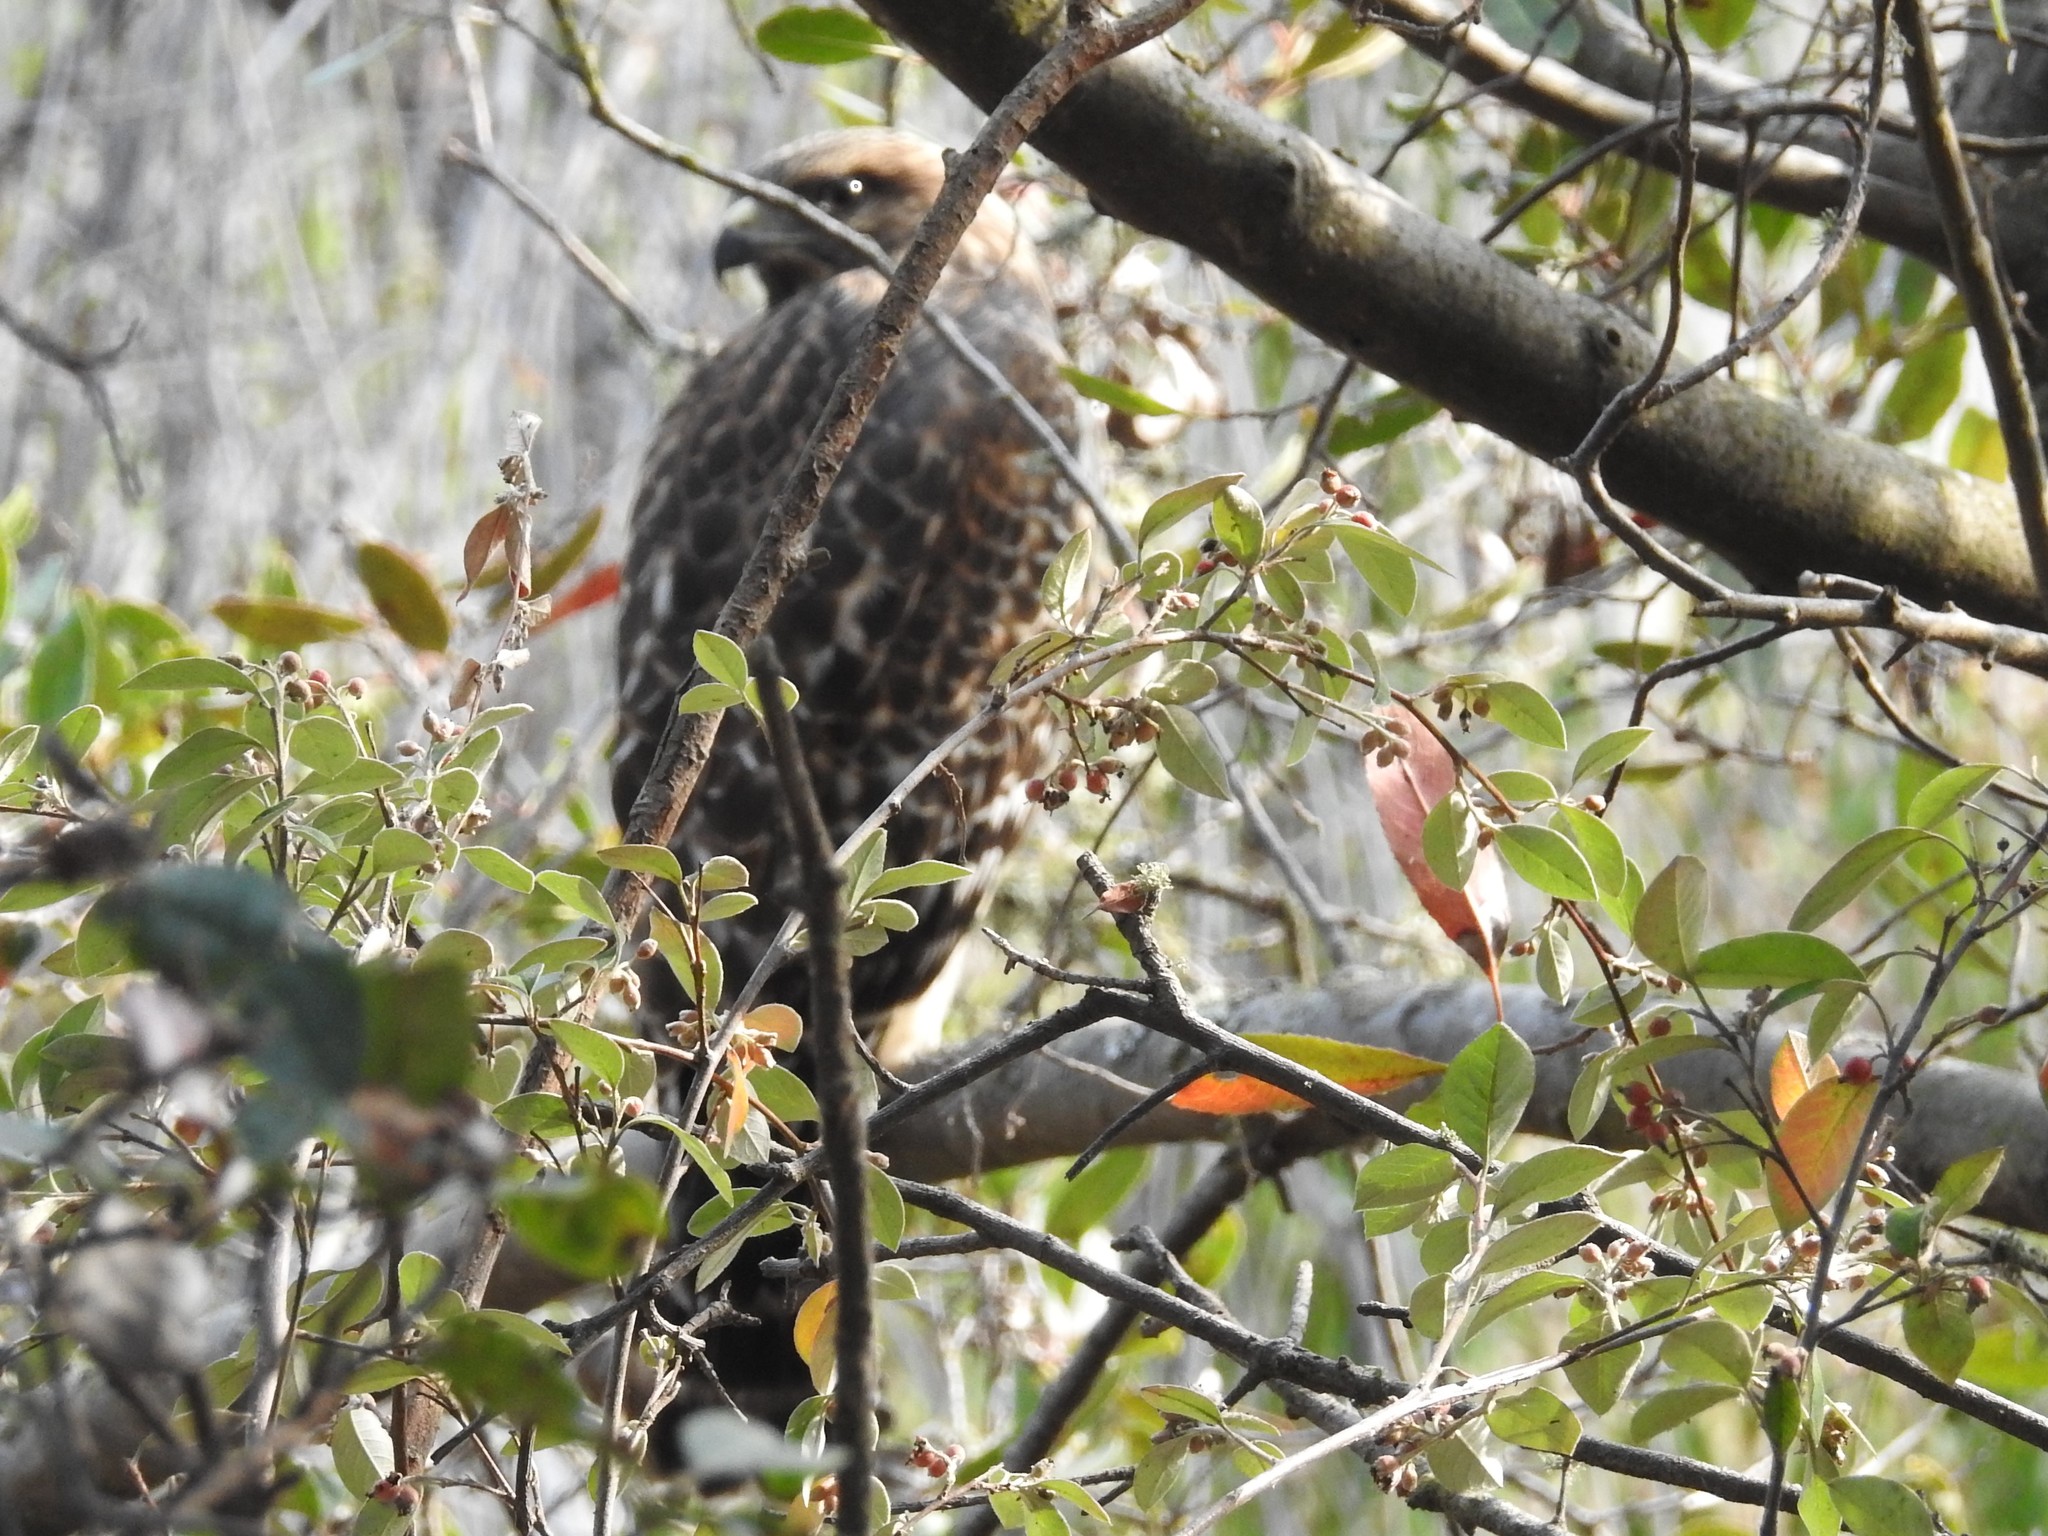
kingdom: Animalia
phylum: Chordata
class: Aves
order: Accipitriformes
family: Accipitridae
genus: Buteo
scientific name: Buteo lineatus
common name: Red-shouldered hawk
